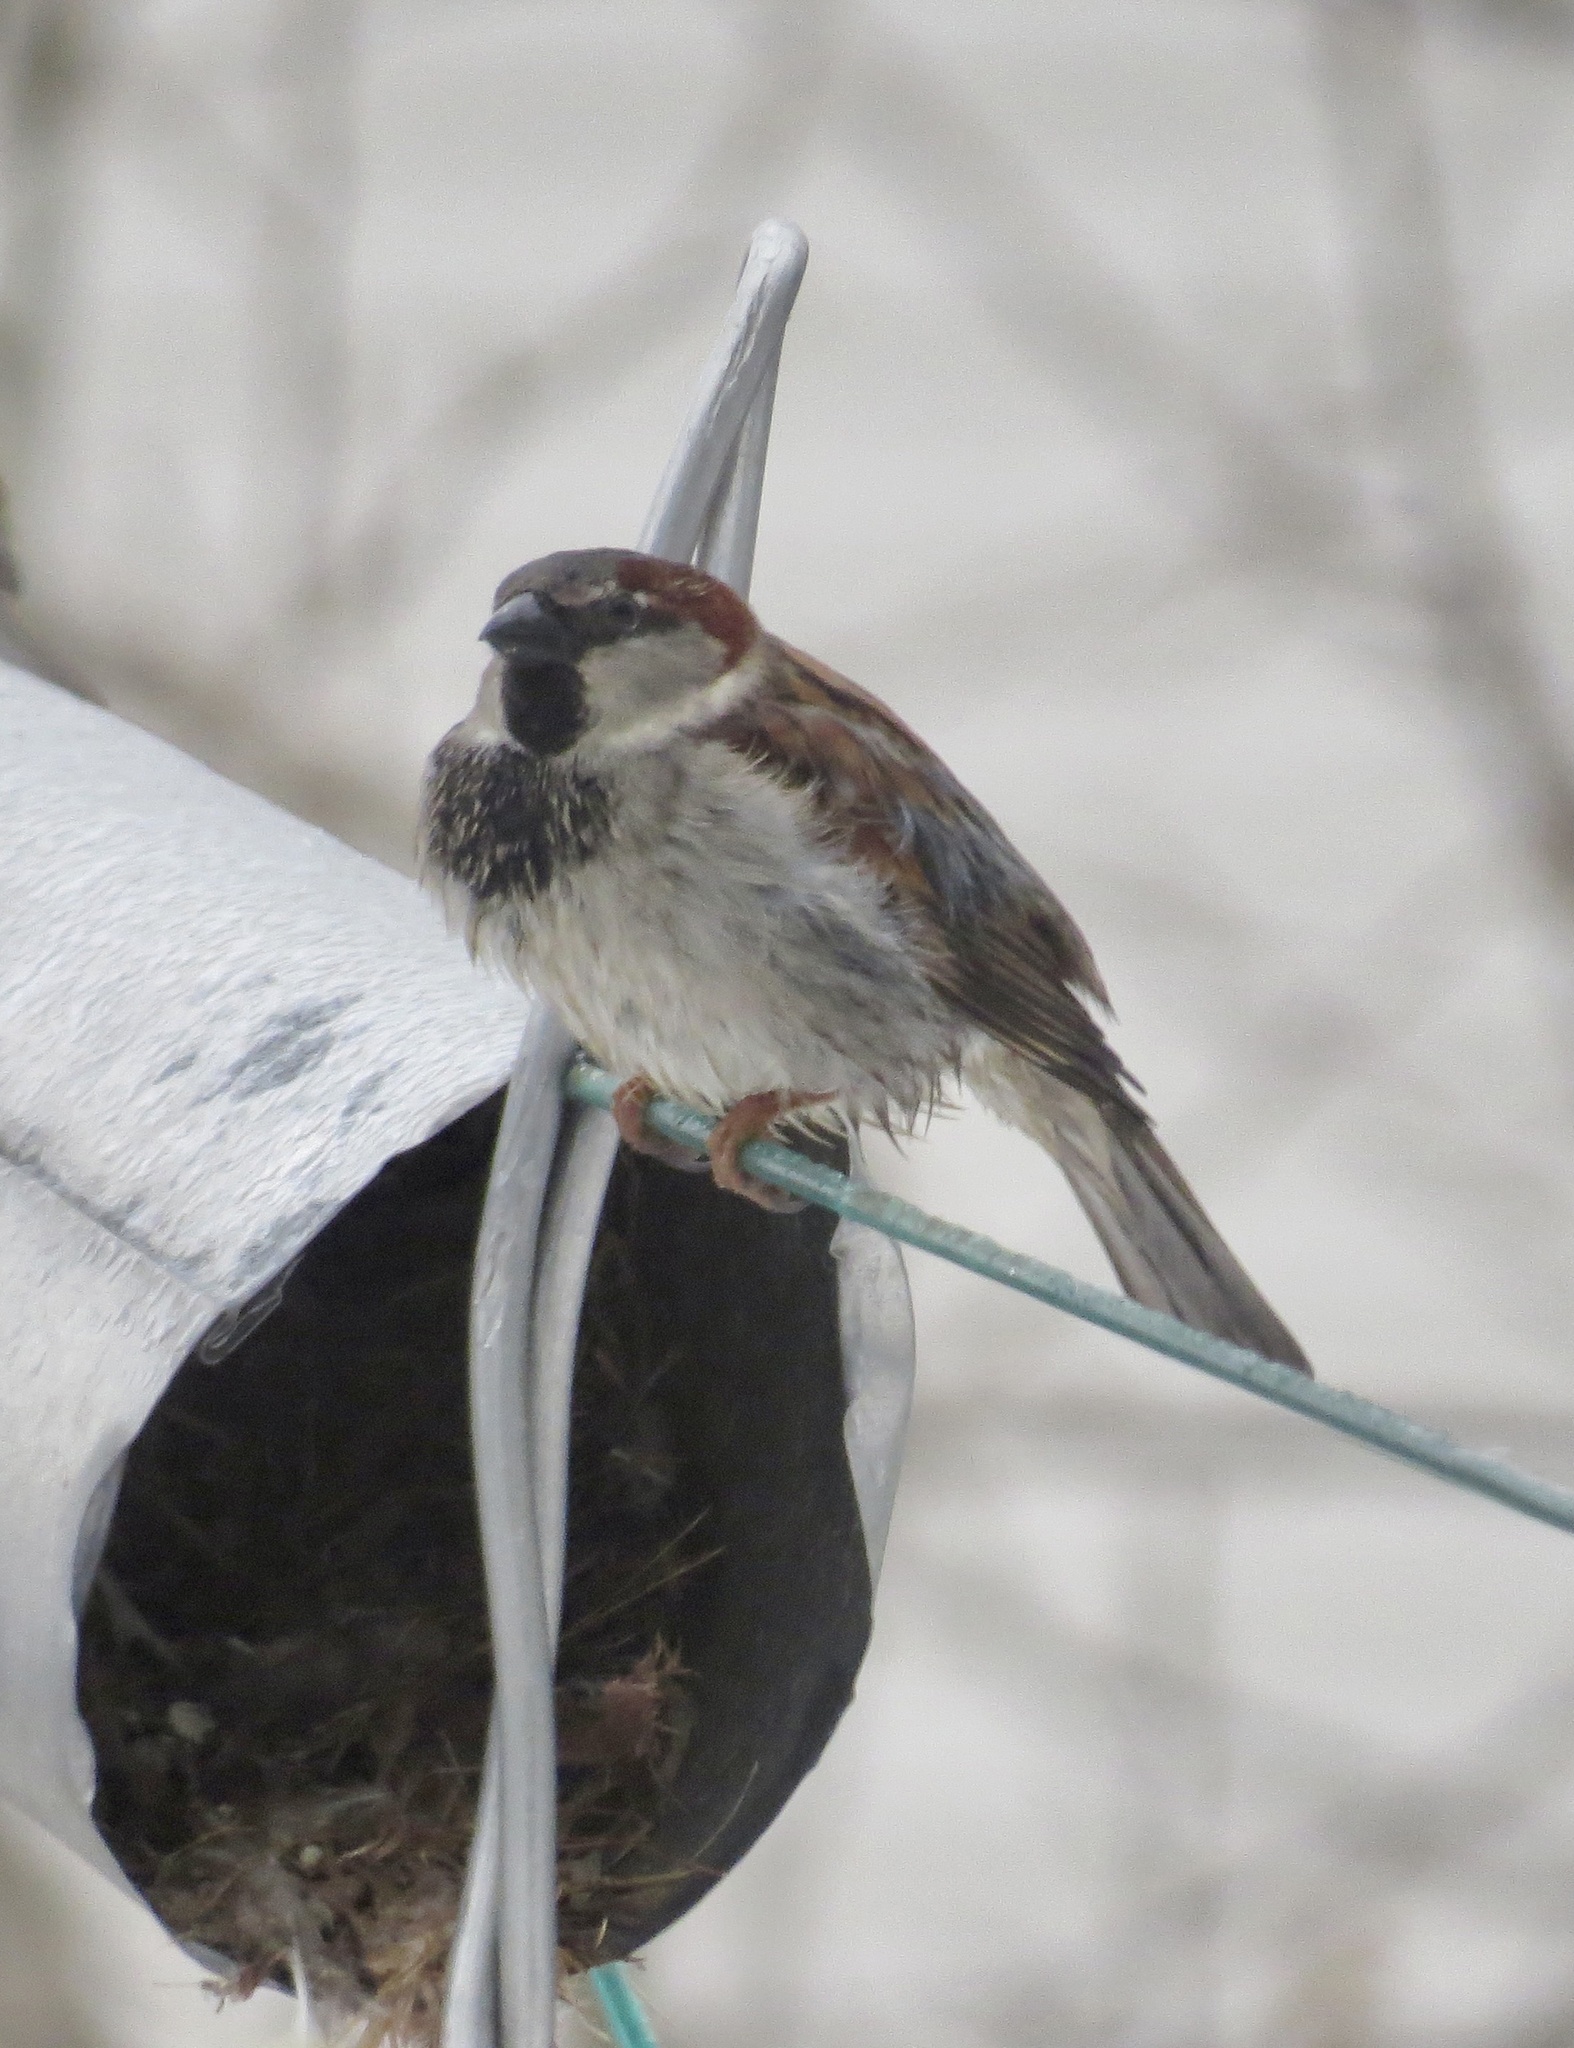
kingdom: Animalia
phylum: Chordata
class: Aves
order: Passeriformes
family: Passeridae
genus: Passer
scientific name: Passer domesticus
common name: House sparrow
